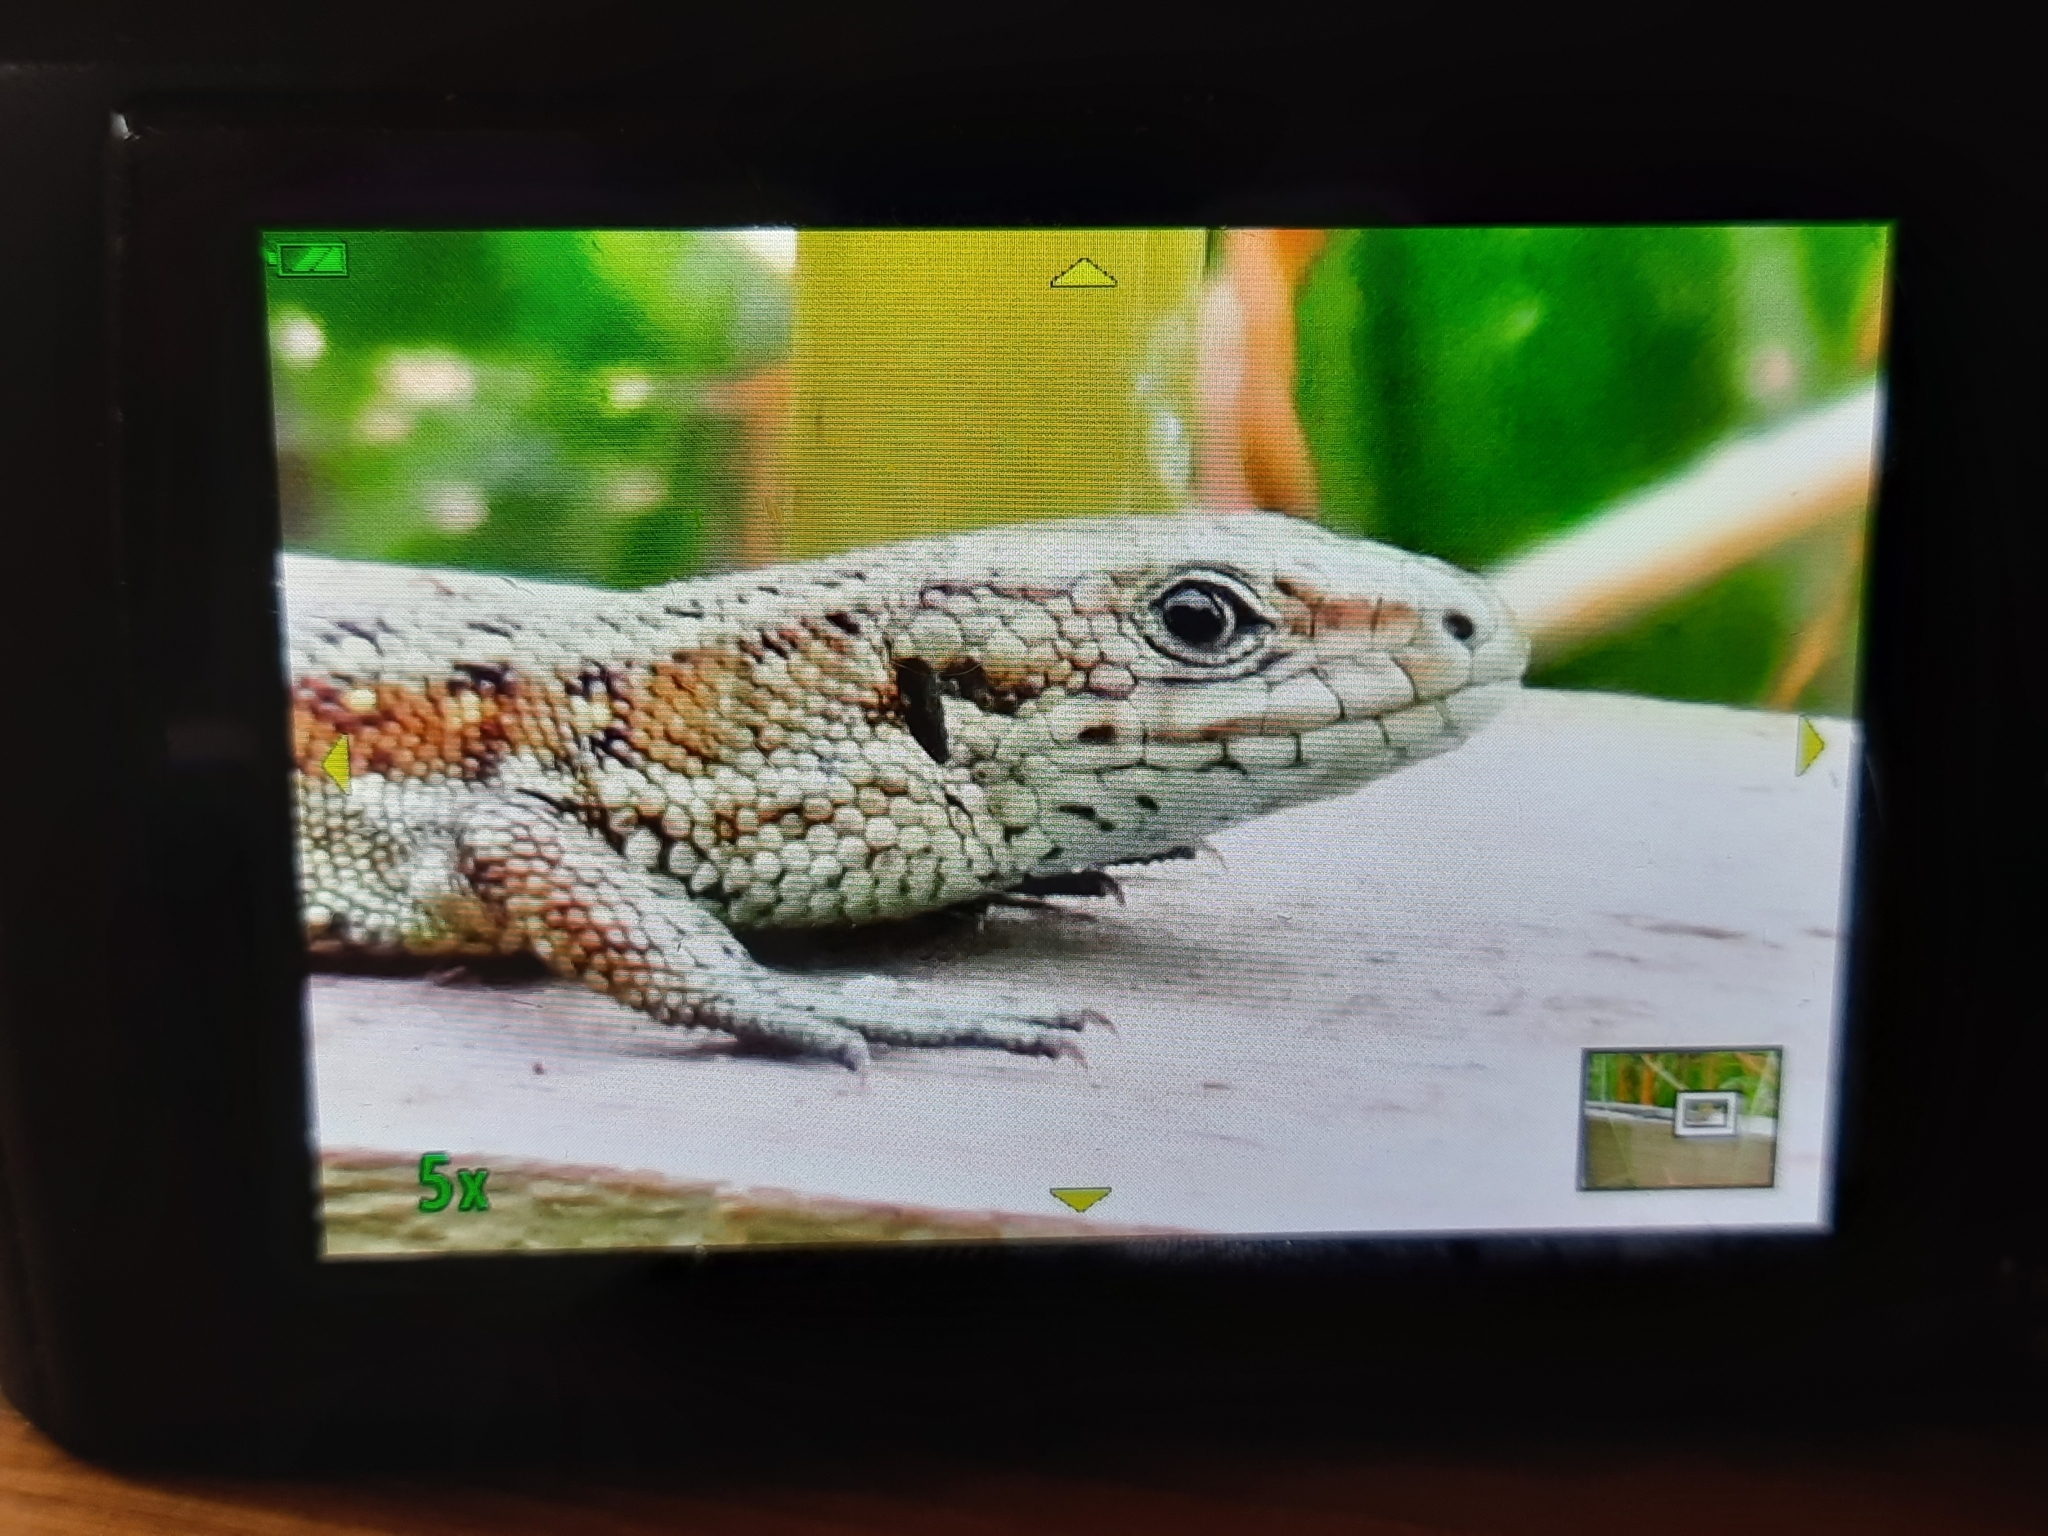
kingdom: Animalia
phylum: Chordata
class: Squamata
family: Lacertidae
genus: Zootoca
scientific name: Zootoca vivipara
